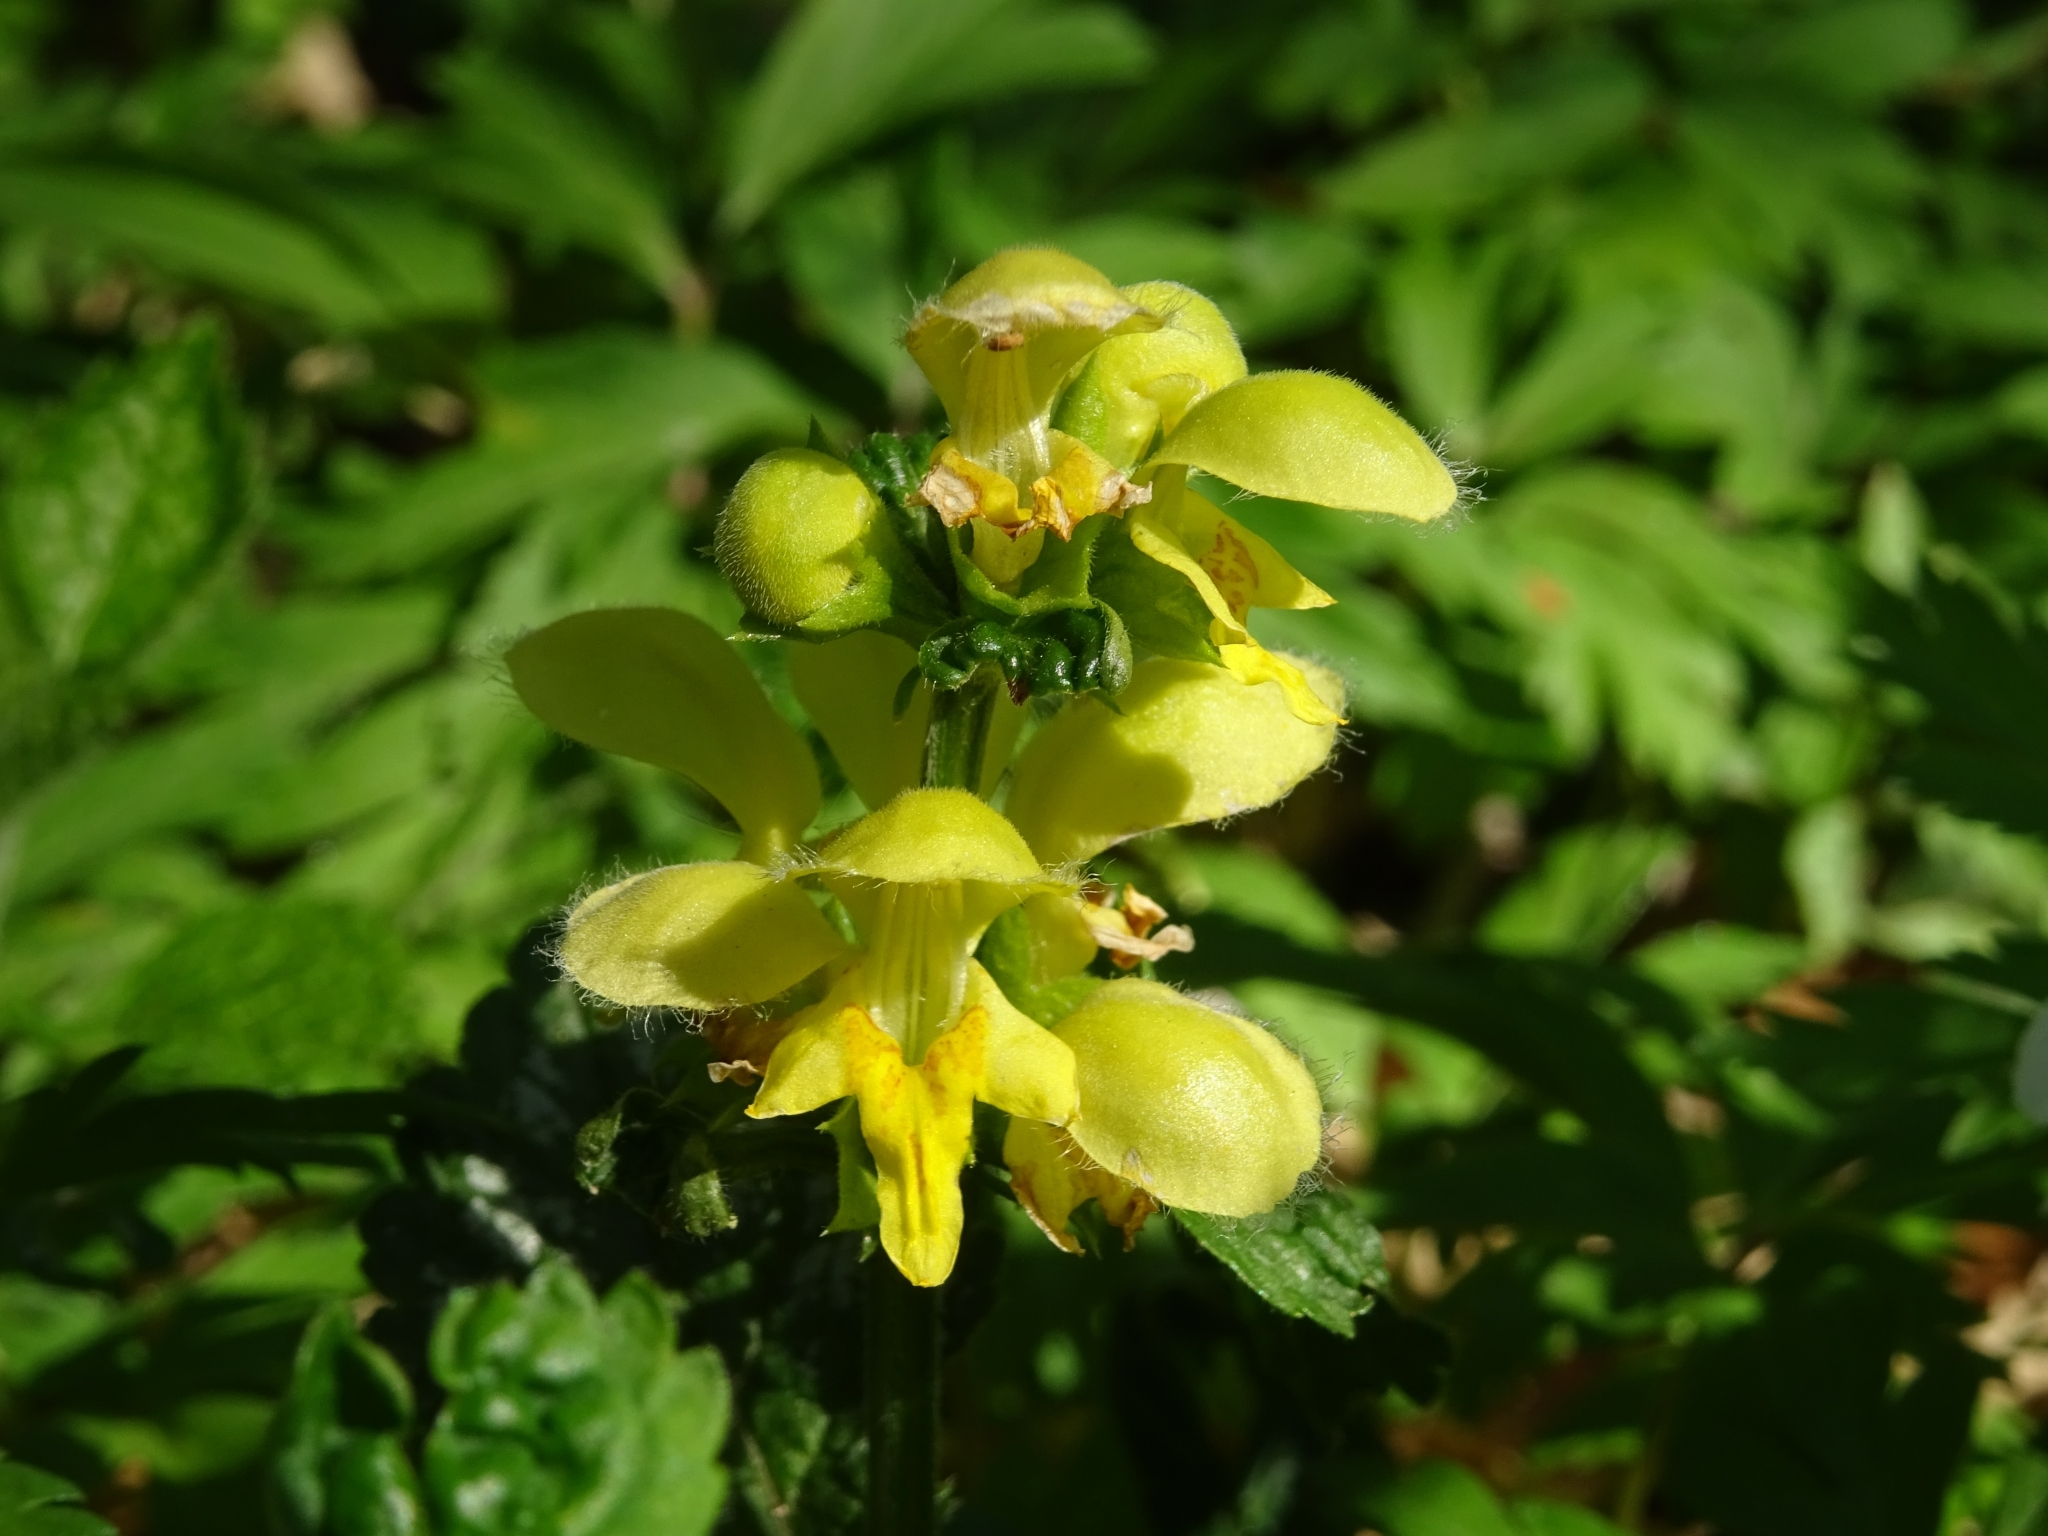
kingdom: Plantae
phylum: Tracheophyta
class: Magnoliopsida
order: Lamiales
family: Lamiaceae
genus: Lamium
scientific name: Lamium galeobdolon
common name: Yellow archangel
